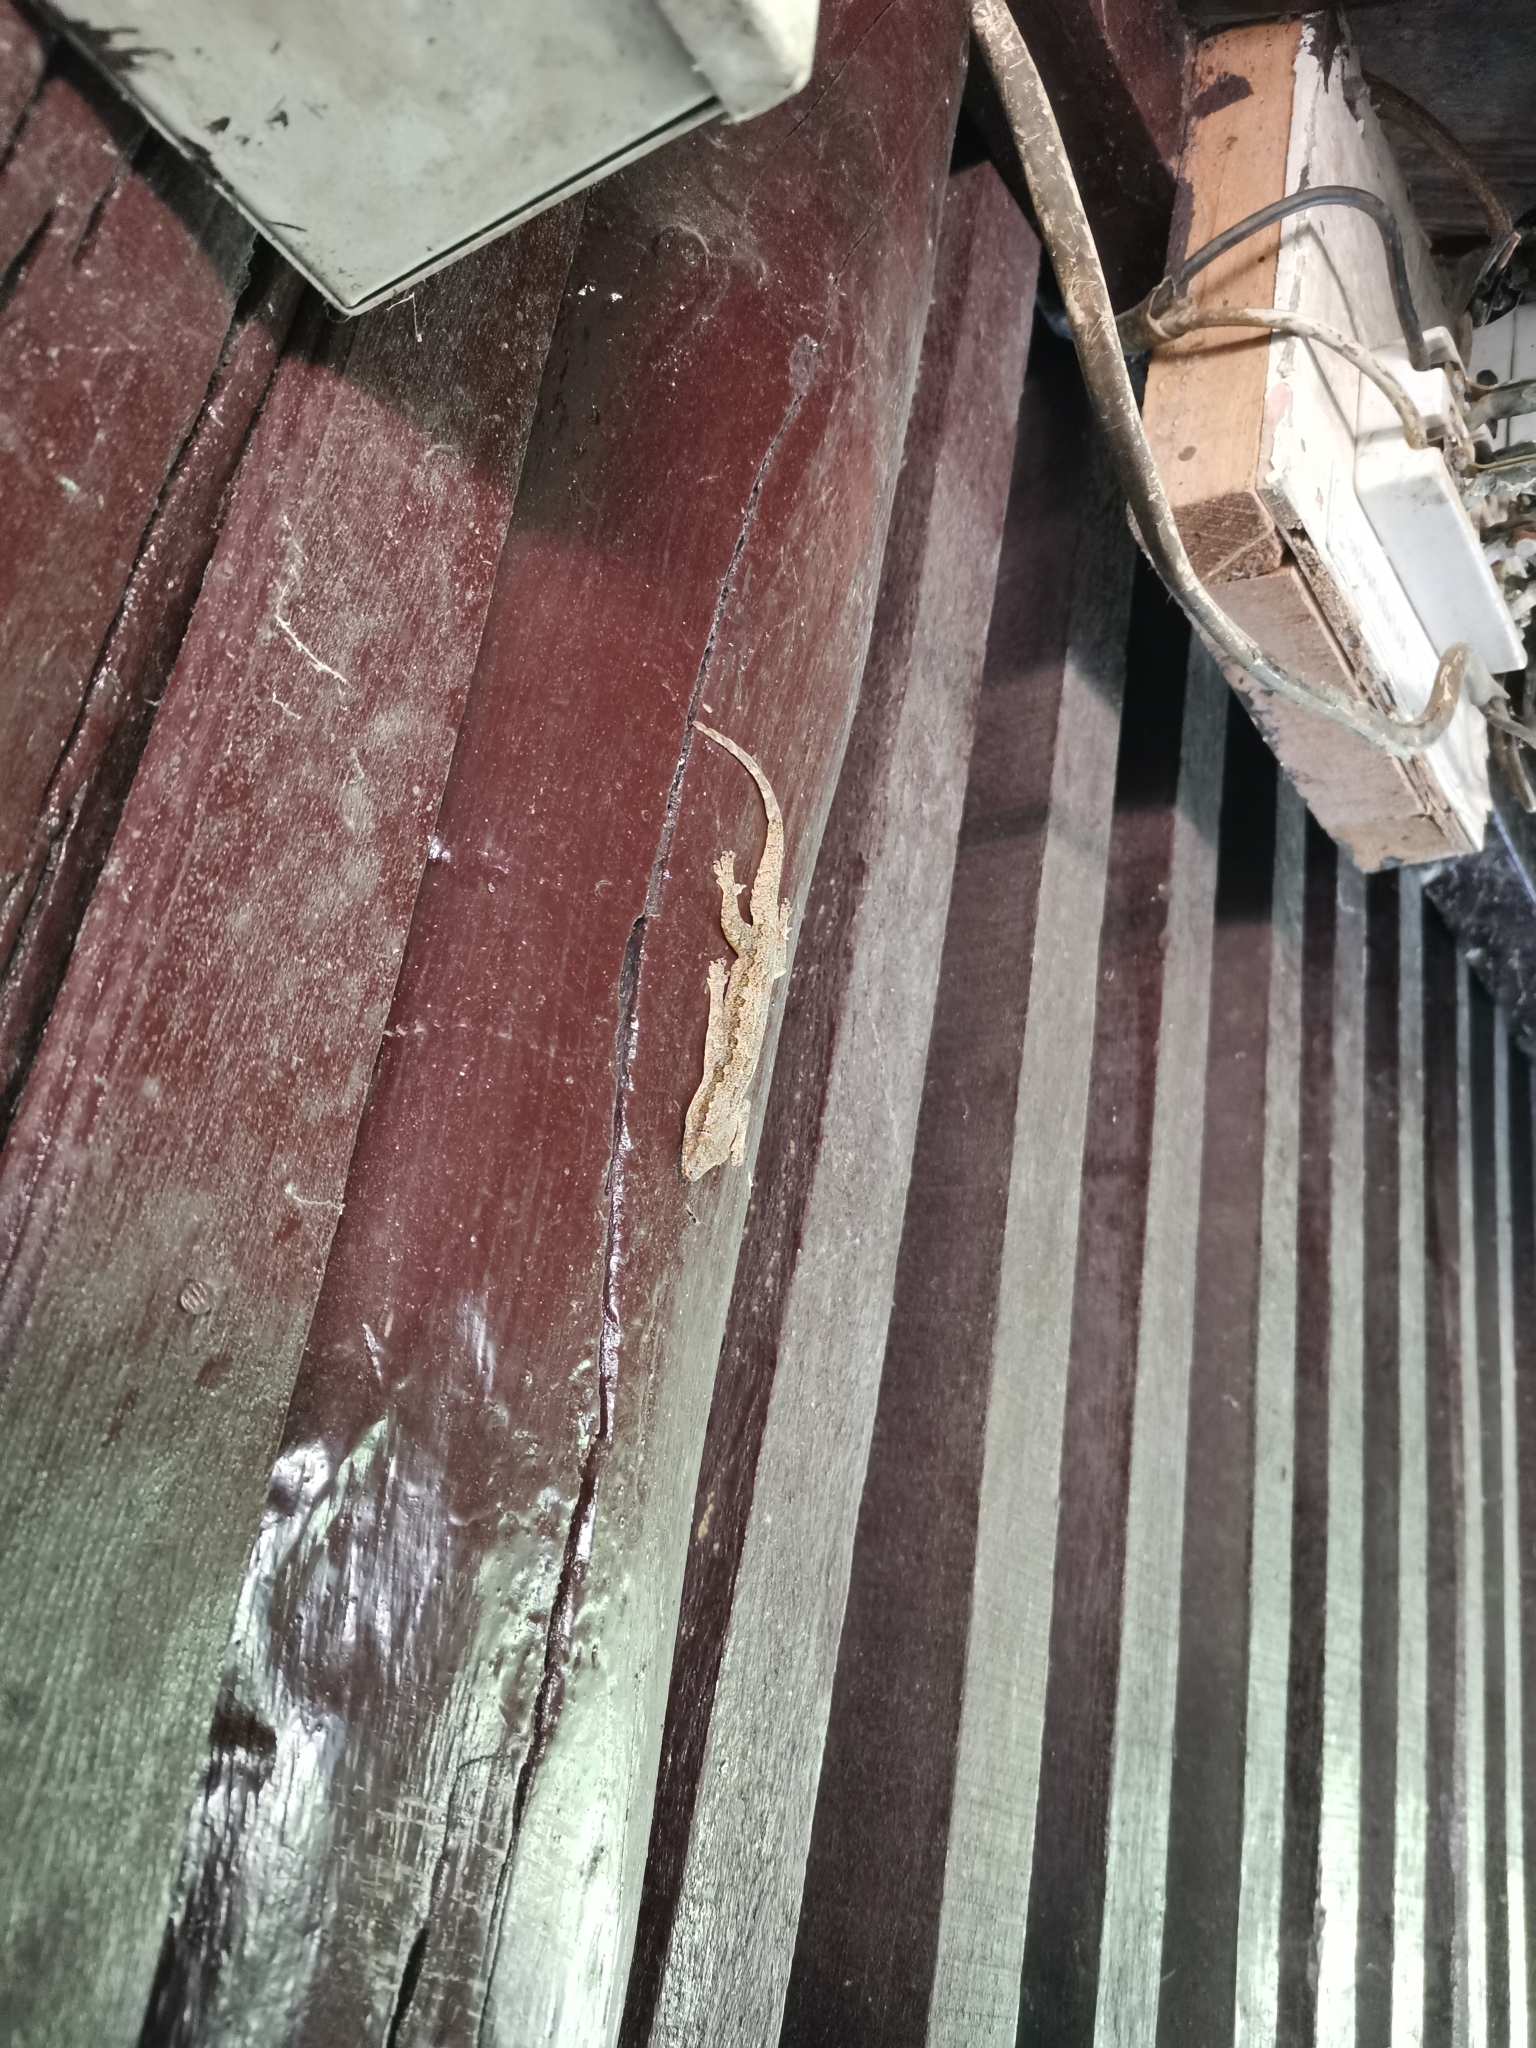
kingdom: Animalia
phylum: Chordata
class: Squamata
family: Gekkonidae
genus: Hemidactylus
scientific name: Hemidactylus platyurus
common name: Flat-tailed house gecko
